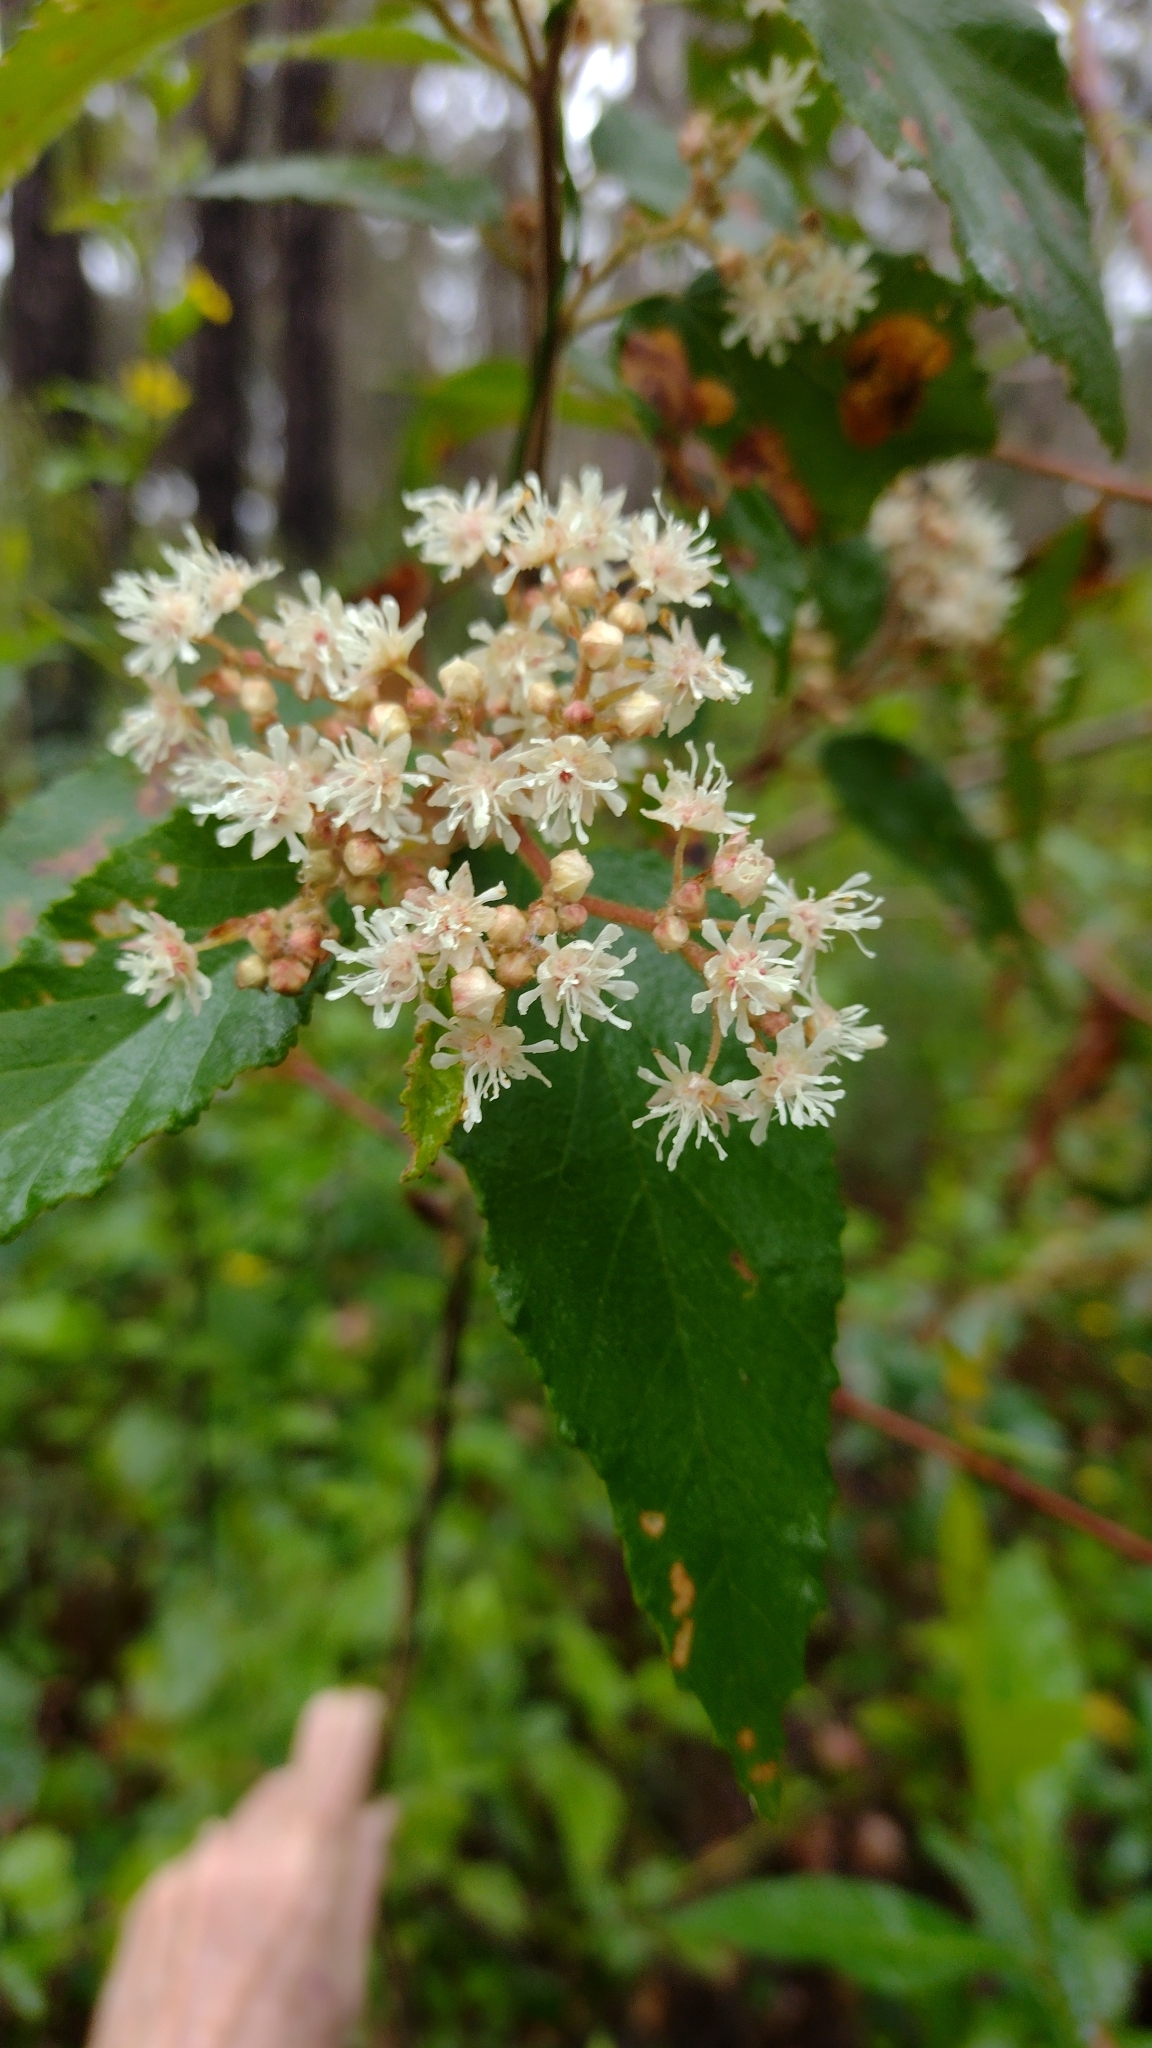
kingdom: Plantae
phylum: Tracheophyta
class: Magnoliopsida
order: Malvales
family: Malvaceae
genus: Androcalva
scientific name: Androcalva rossii
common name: Native hemp
